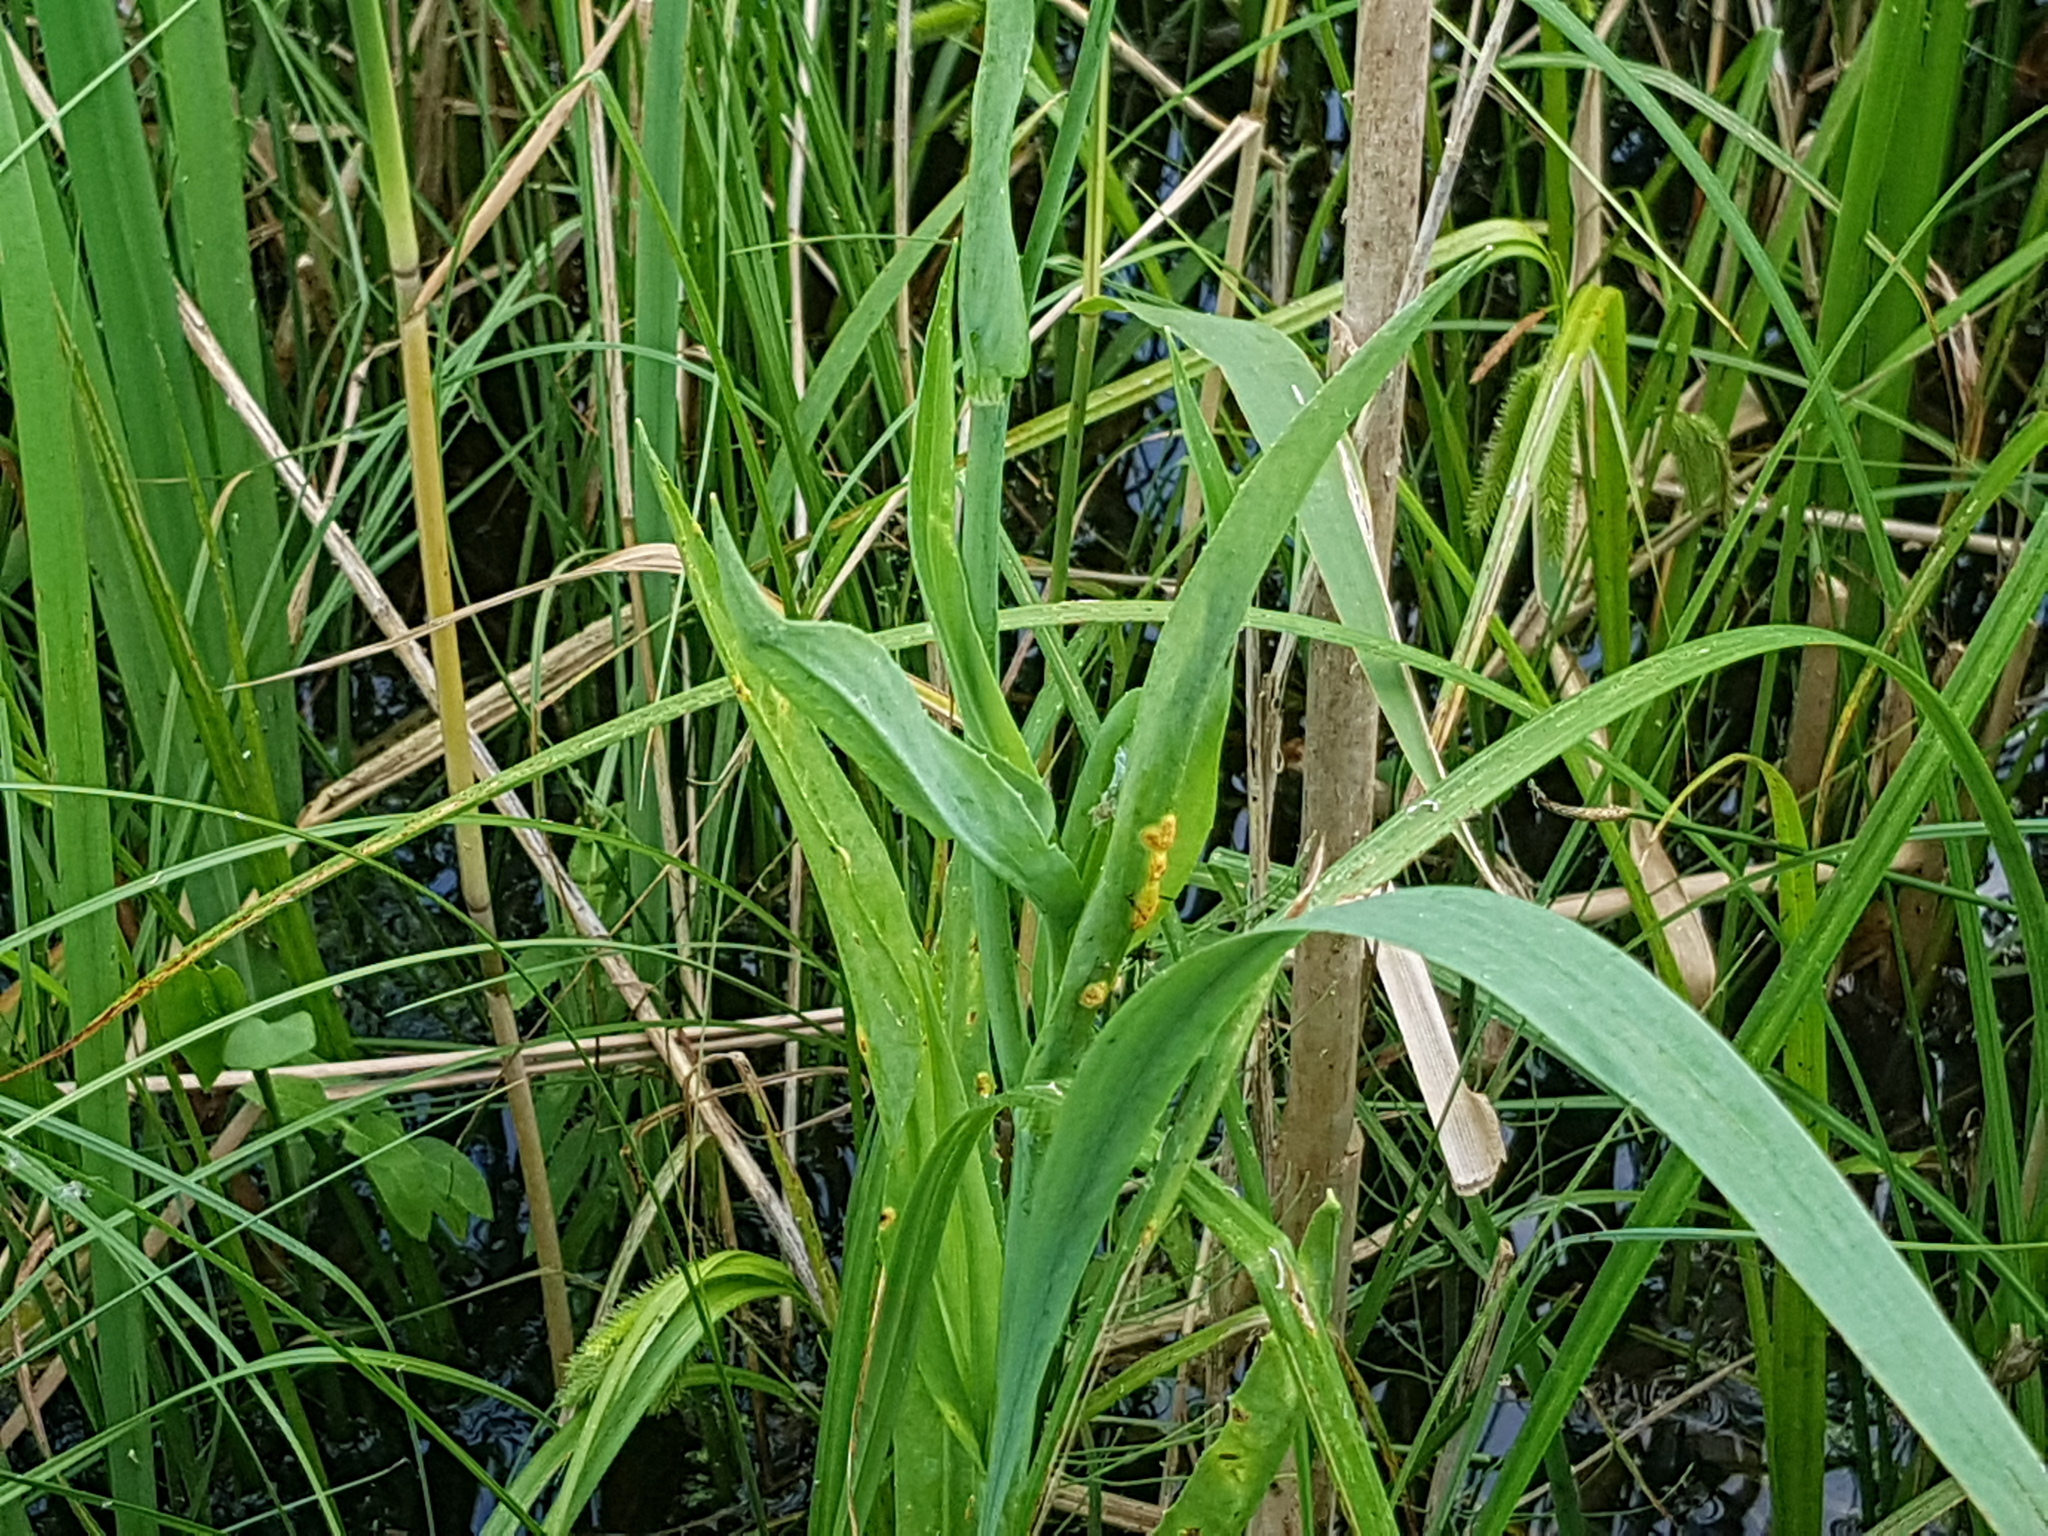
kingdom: Plantae
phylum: Tracheophyta
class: Magnoliopsida
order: Ranunculales
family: Ranunculaceae
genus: Ranunculus
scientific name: Ranunculus lingua
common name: Greater spearwort
